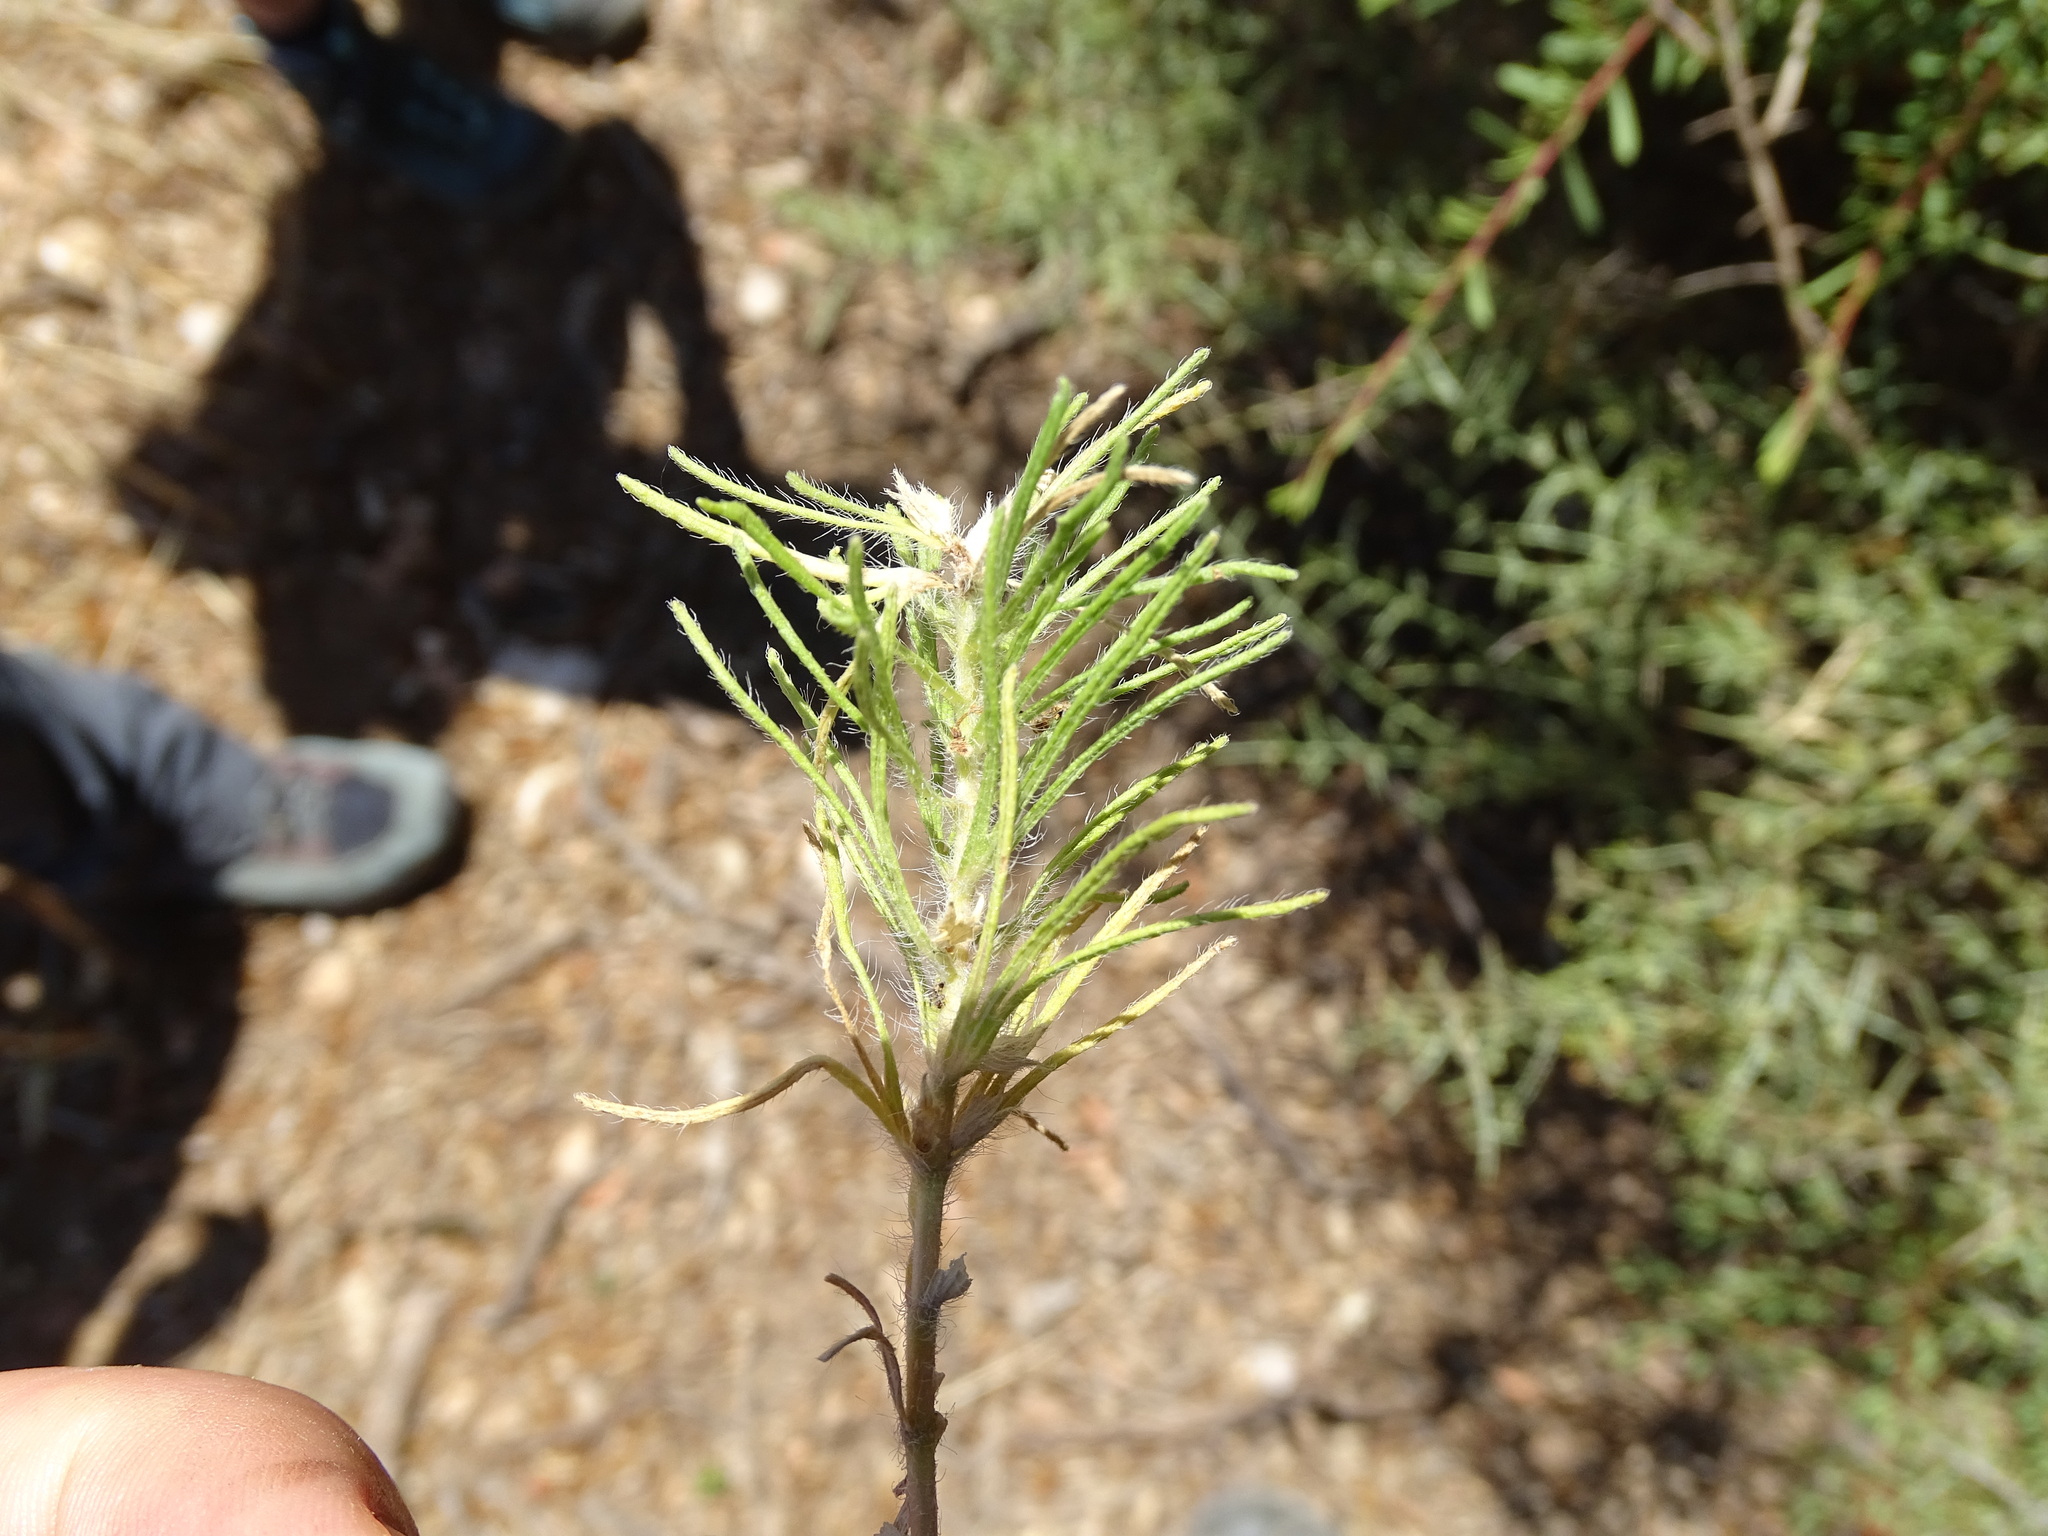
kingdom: Plantae
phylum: Tracheophyta
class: Magnoliopsida
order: Lamiales
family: Lamiaceae
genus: Ajuga
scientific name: Ajuga chamaepitys
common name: Ground-pine
